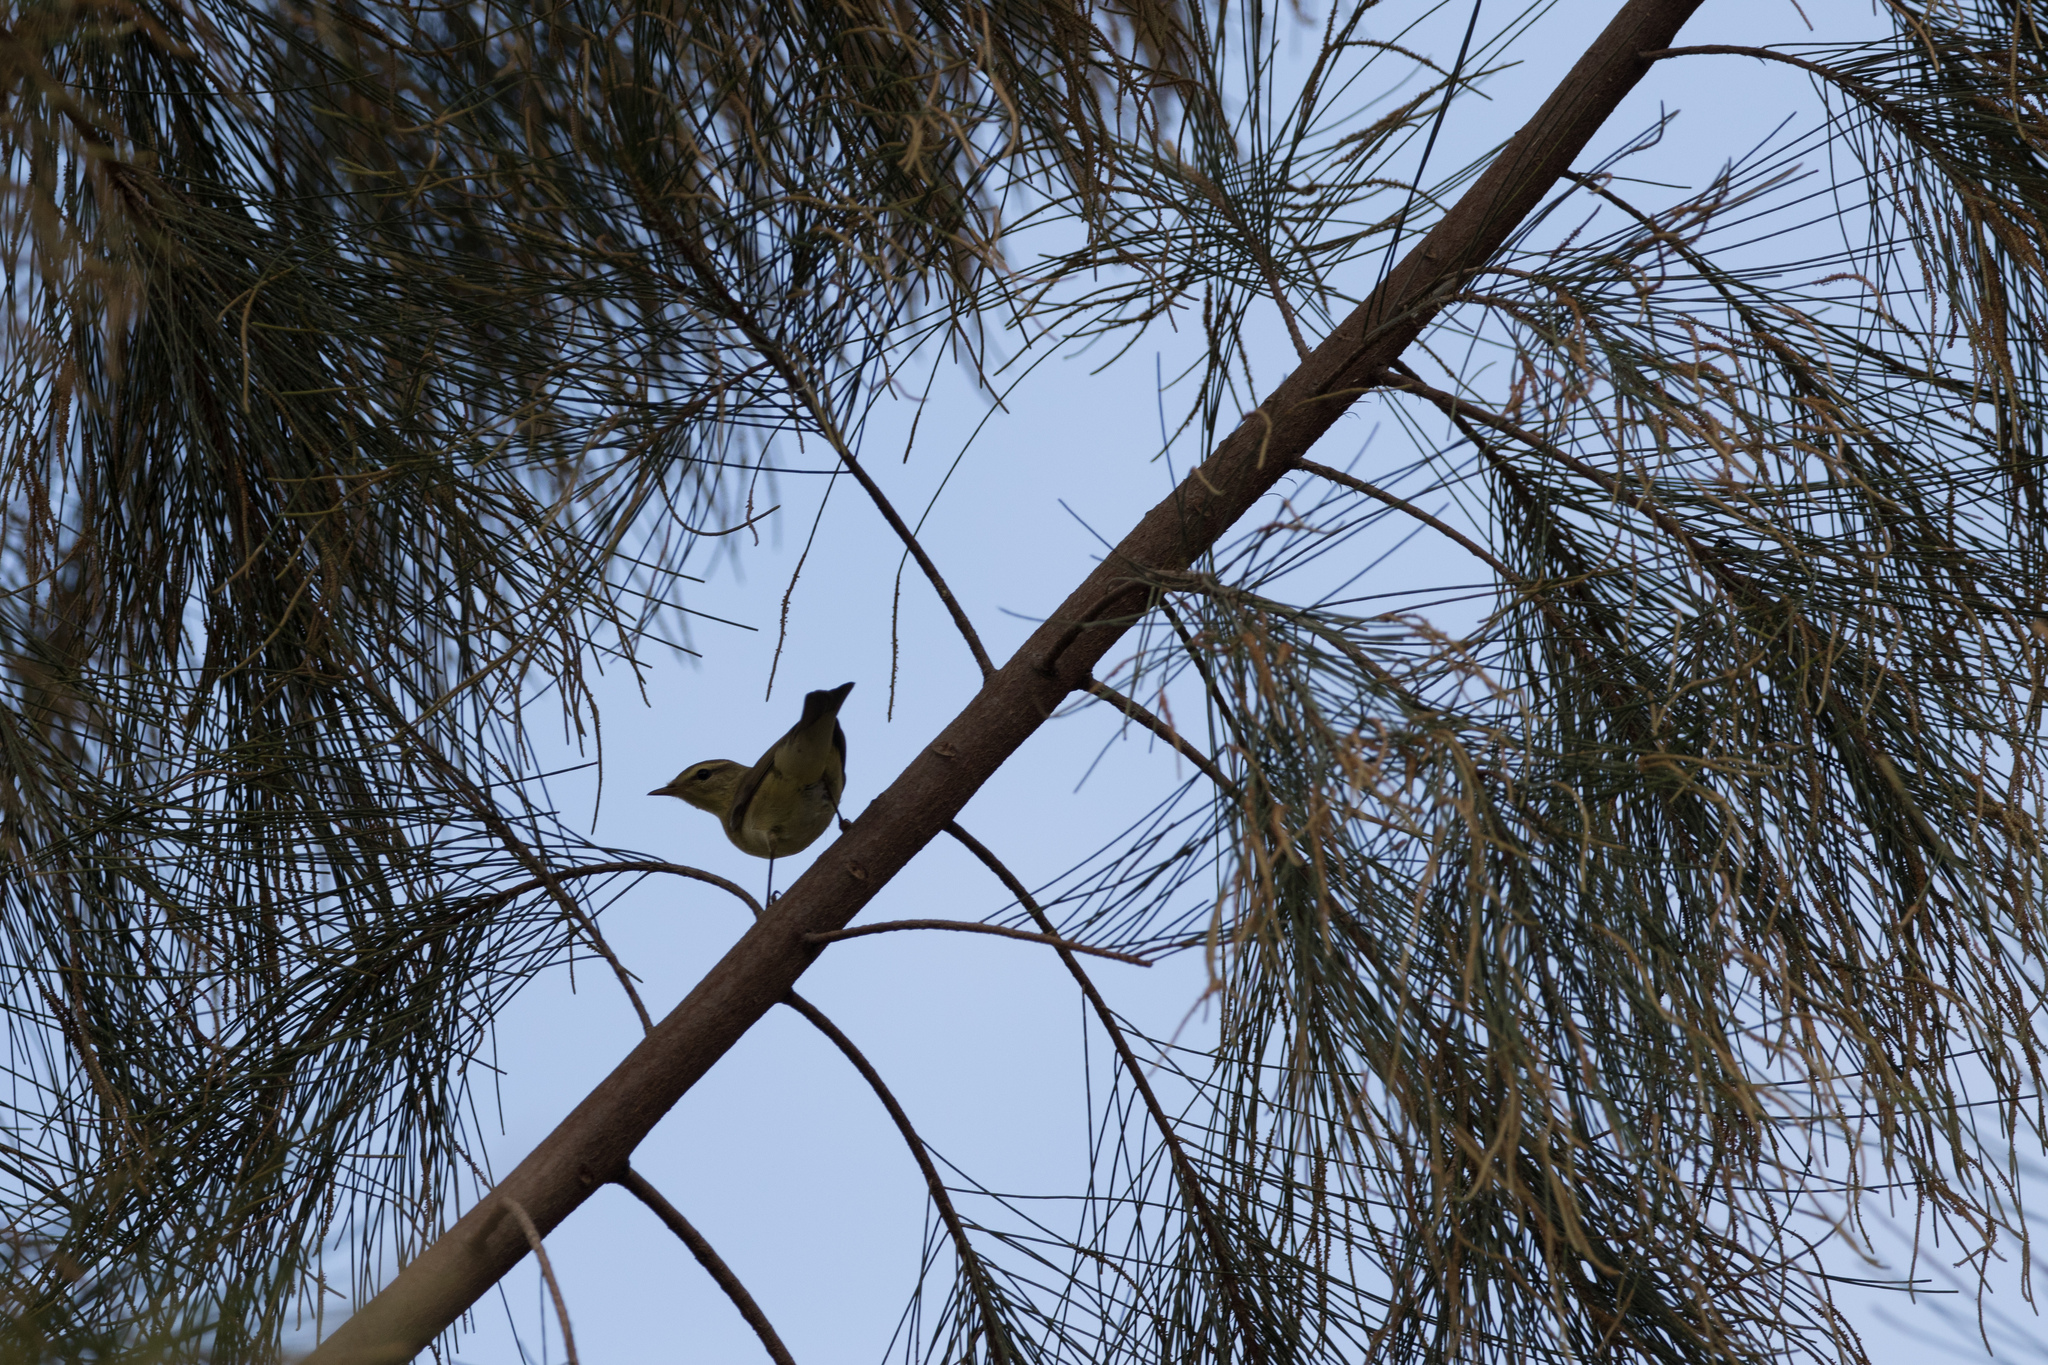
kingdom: Animalia
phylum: Chordata
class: Aves
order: Passeriformes
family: Phylloscopidae
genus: Phylloscopus
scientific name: Phylloscopus trochilus
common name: Willow warbler
